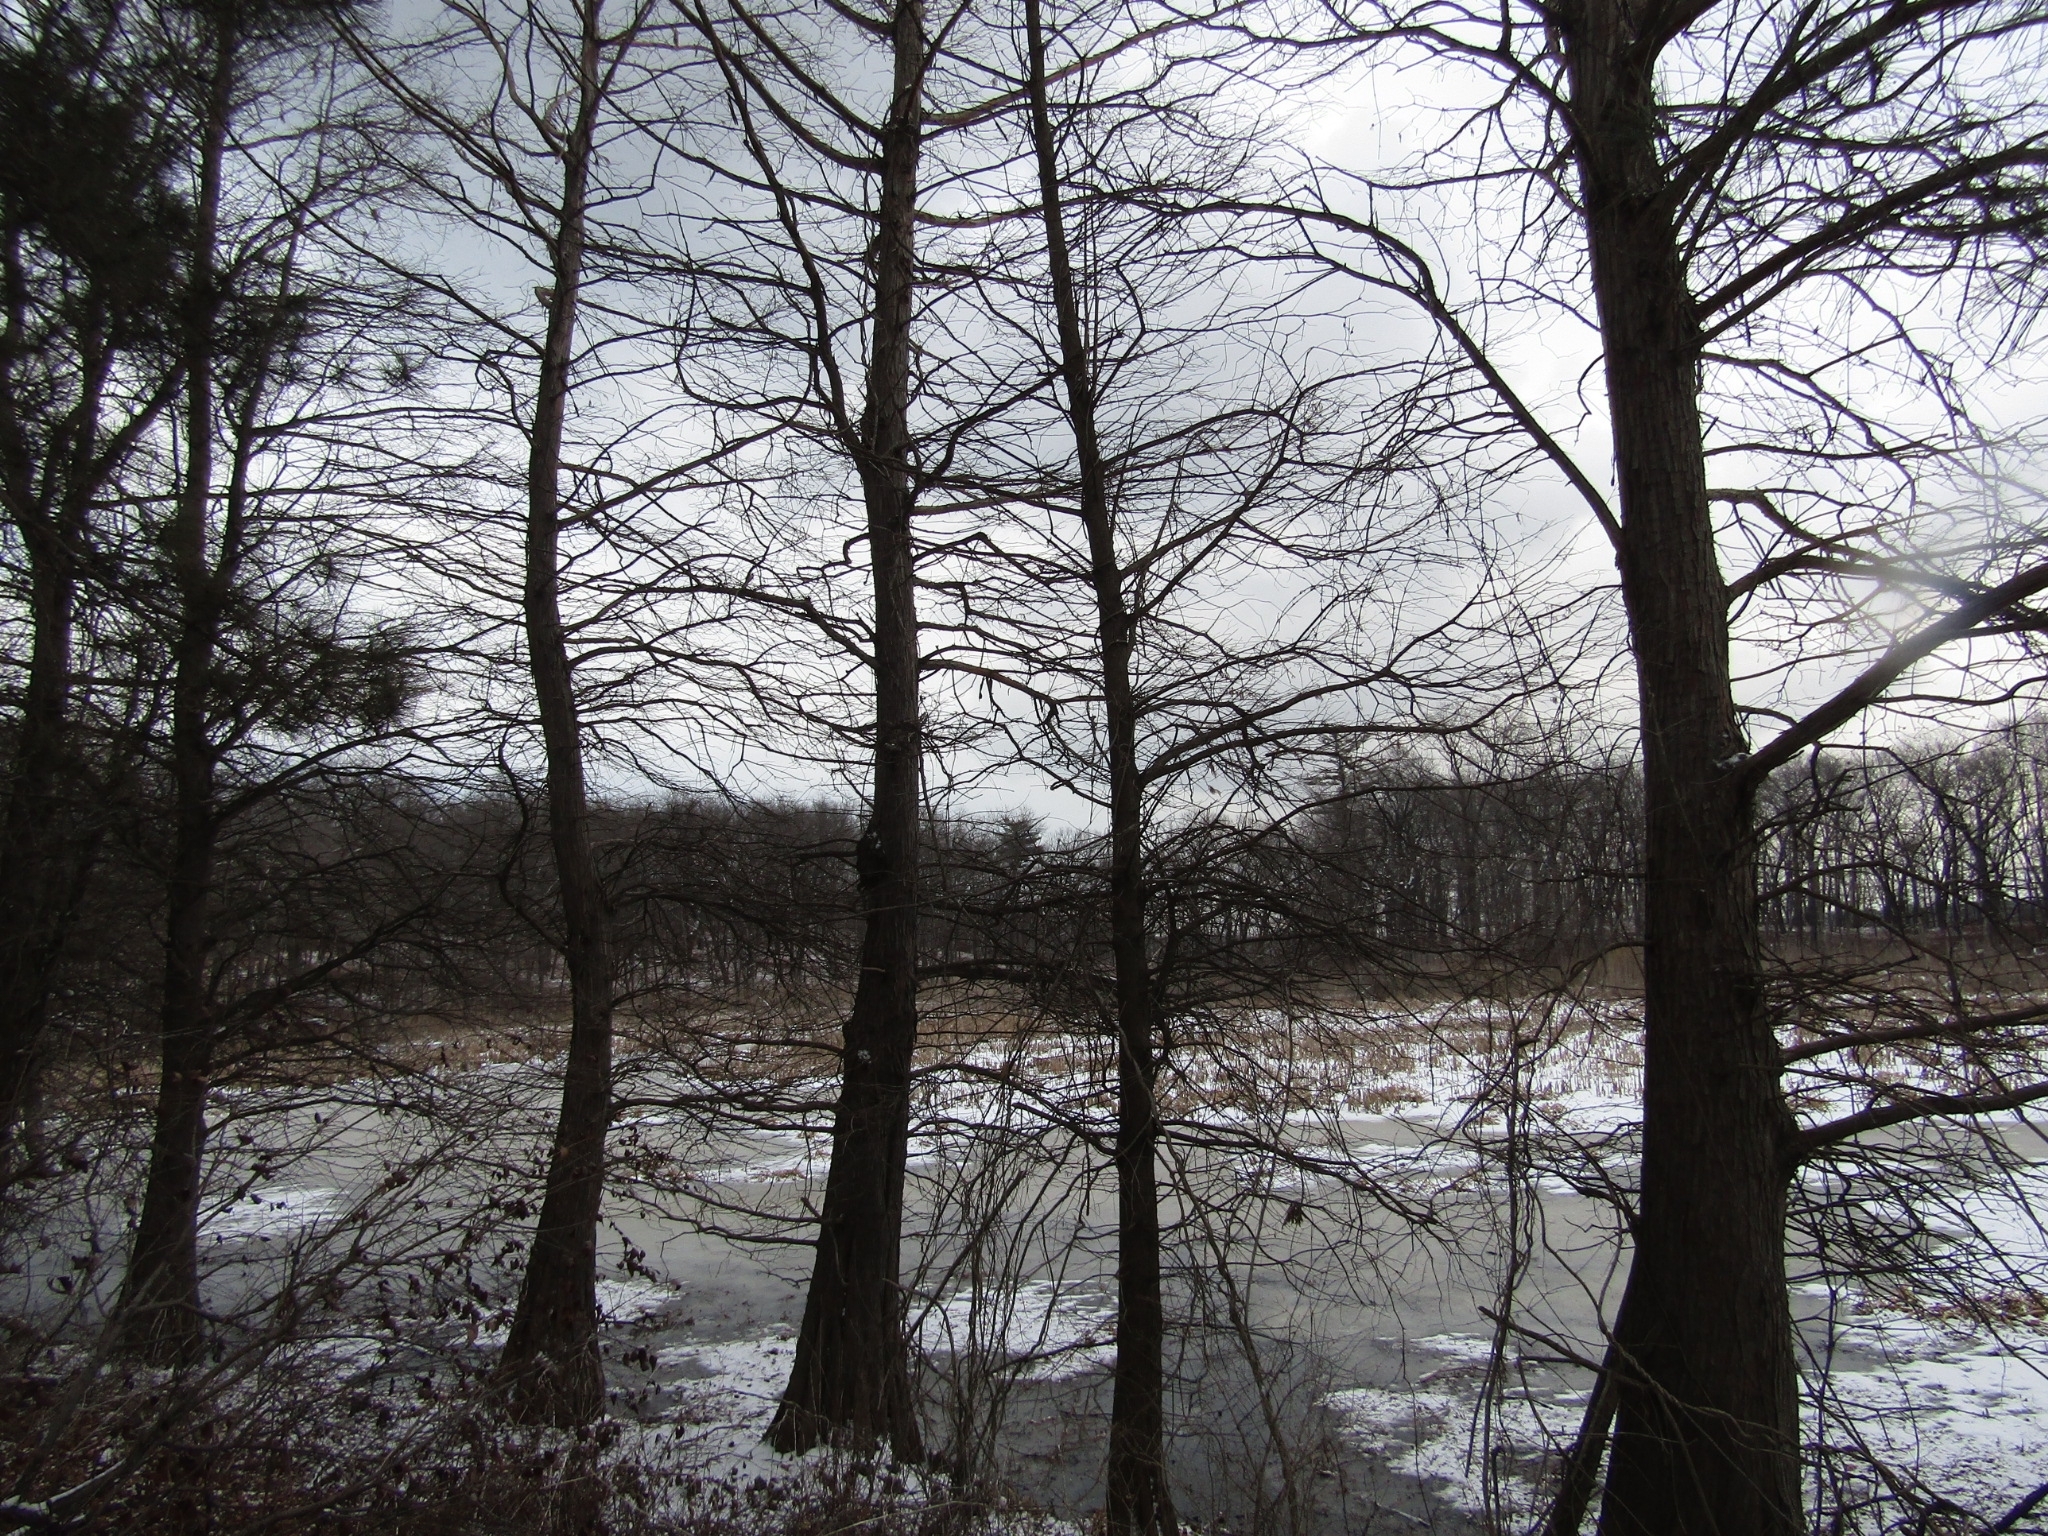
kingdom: Plantae
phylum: Tracheophyta
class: Pinopsida
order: Pinales
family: Cupressaceae
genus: Taxodium
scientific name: Taxodium distichum
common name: Bald cypress
